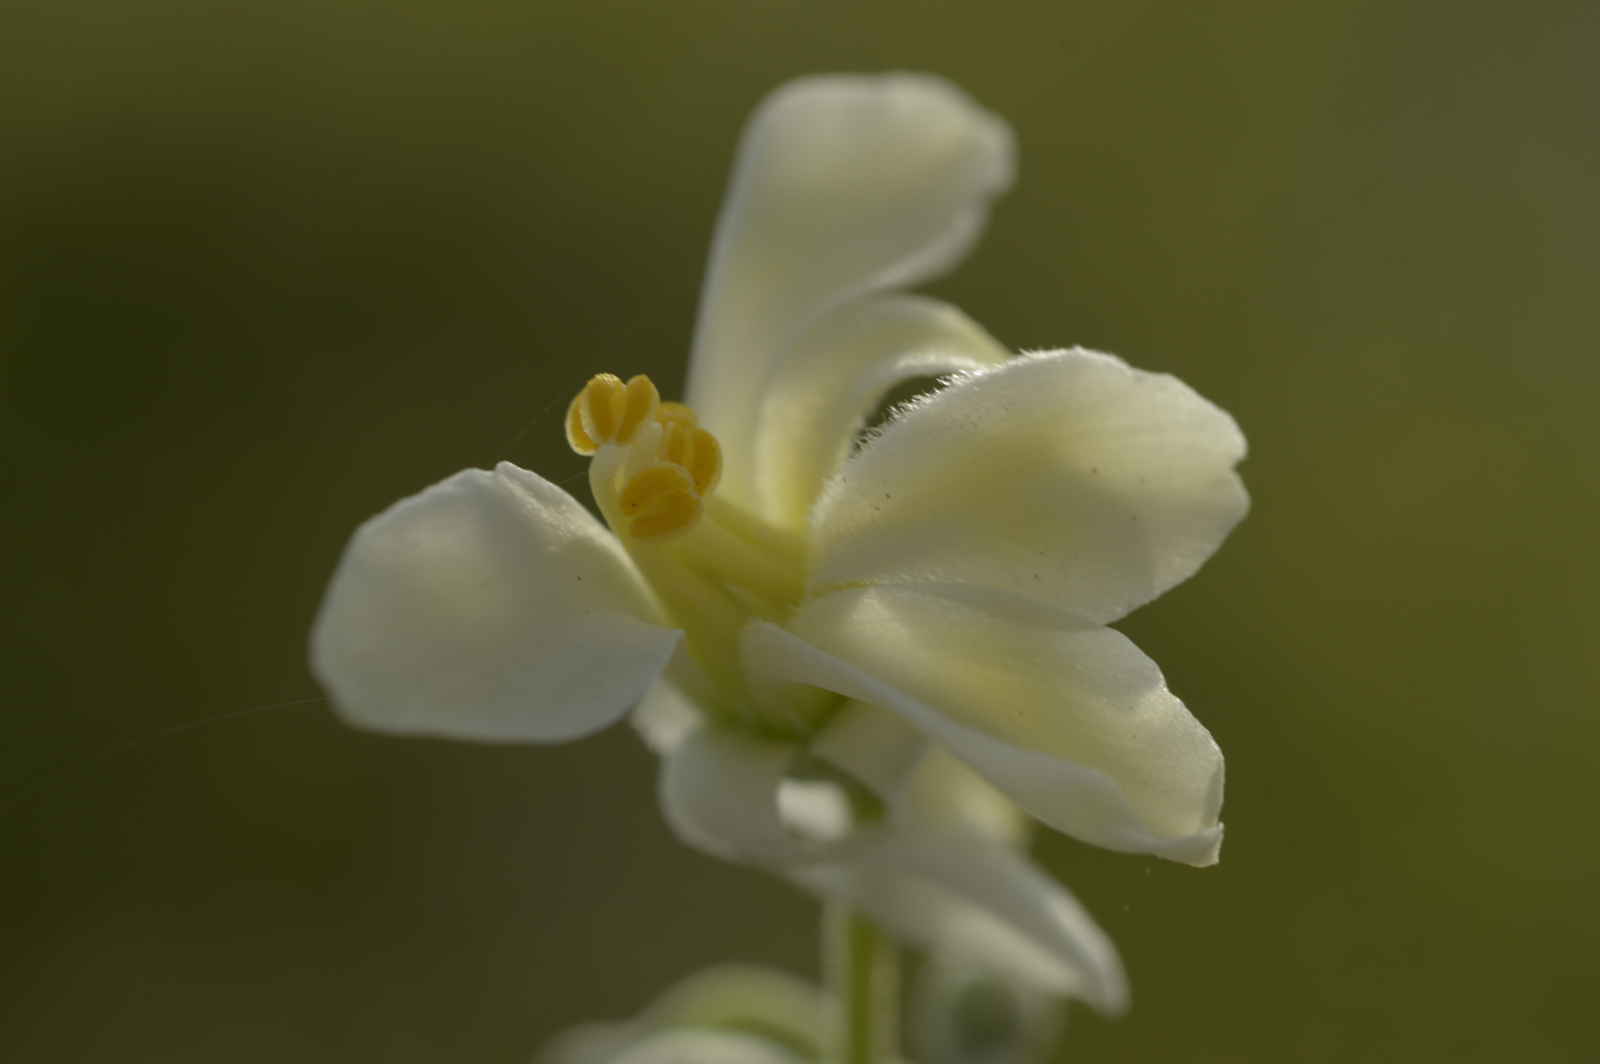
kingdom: Plantae
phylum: Tracheophyta
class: Magnoliopsida
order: Brassicales
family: Moringaceae
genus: Moringa
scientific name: Moringa ovalifolia
